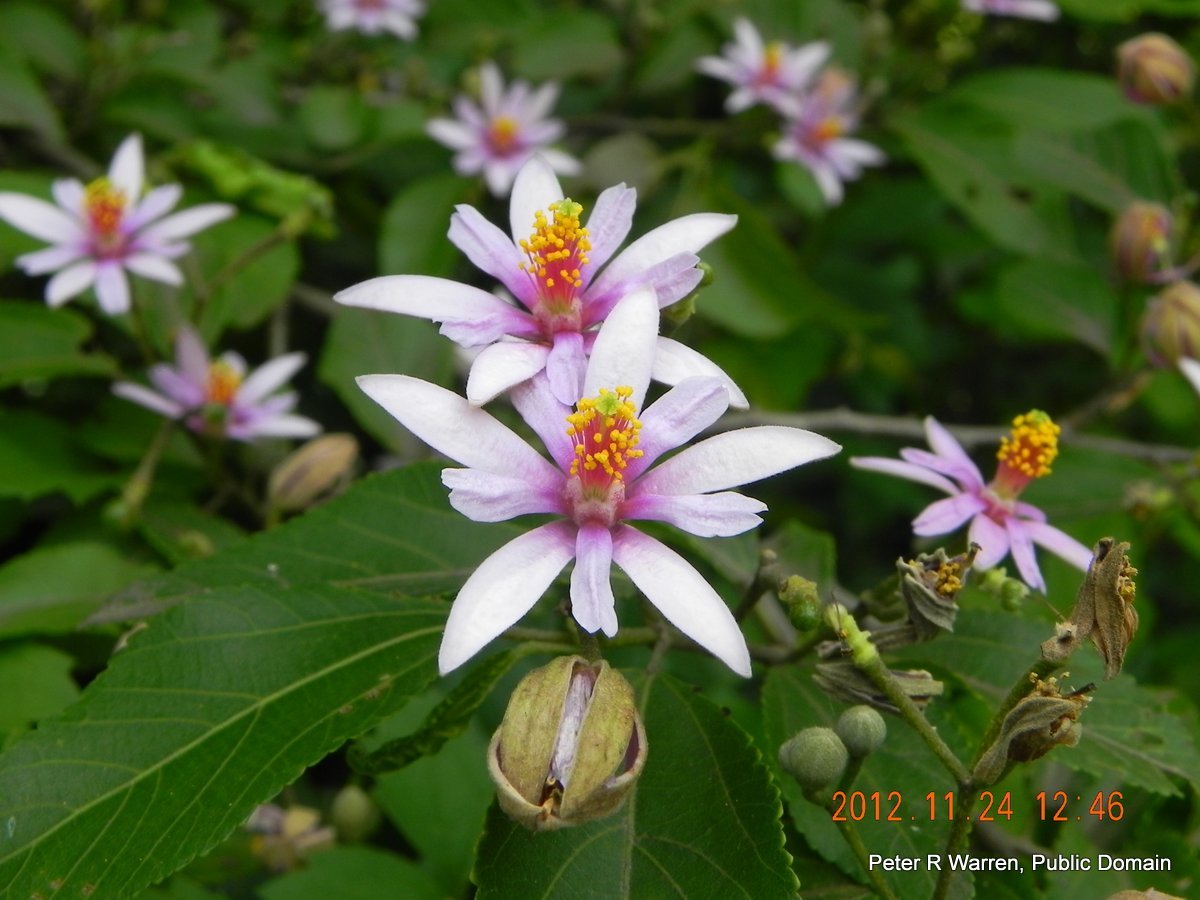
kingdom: Plantae
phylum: Tracheophyta
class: Magnoliopsida
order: Malvales
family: Malvaceae
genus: Grewia
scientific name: Grewia occidentalis
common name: Crossberry
